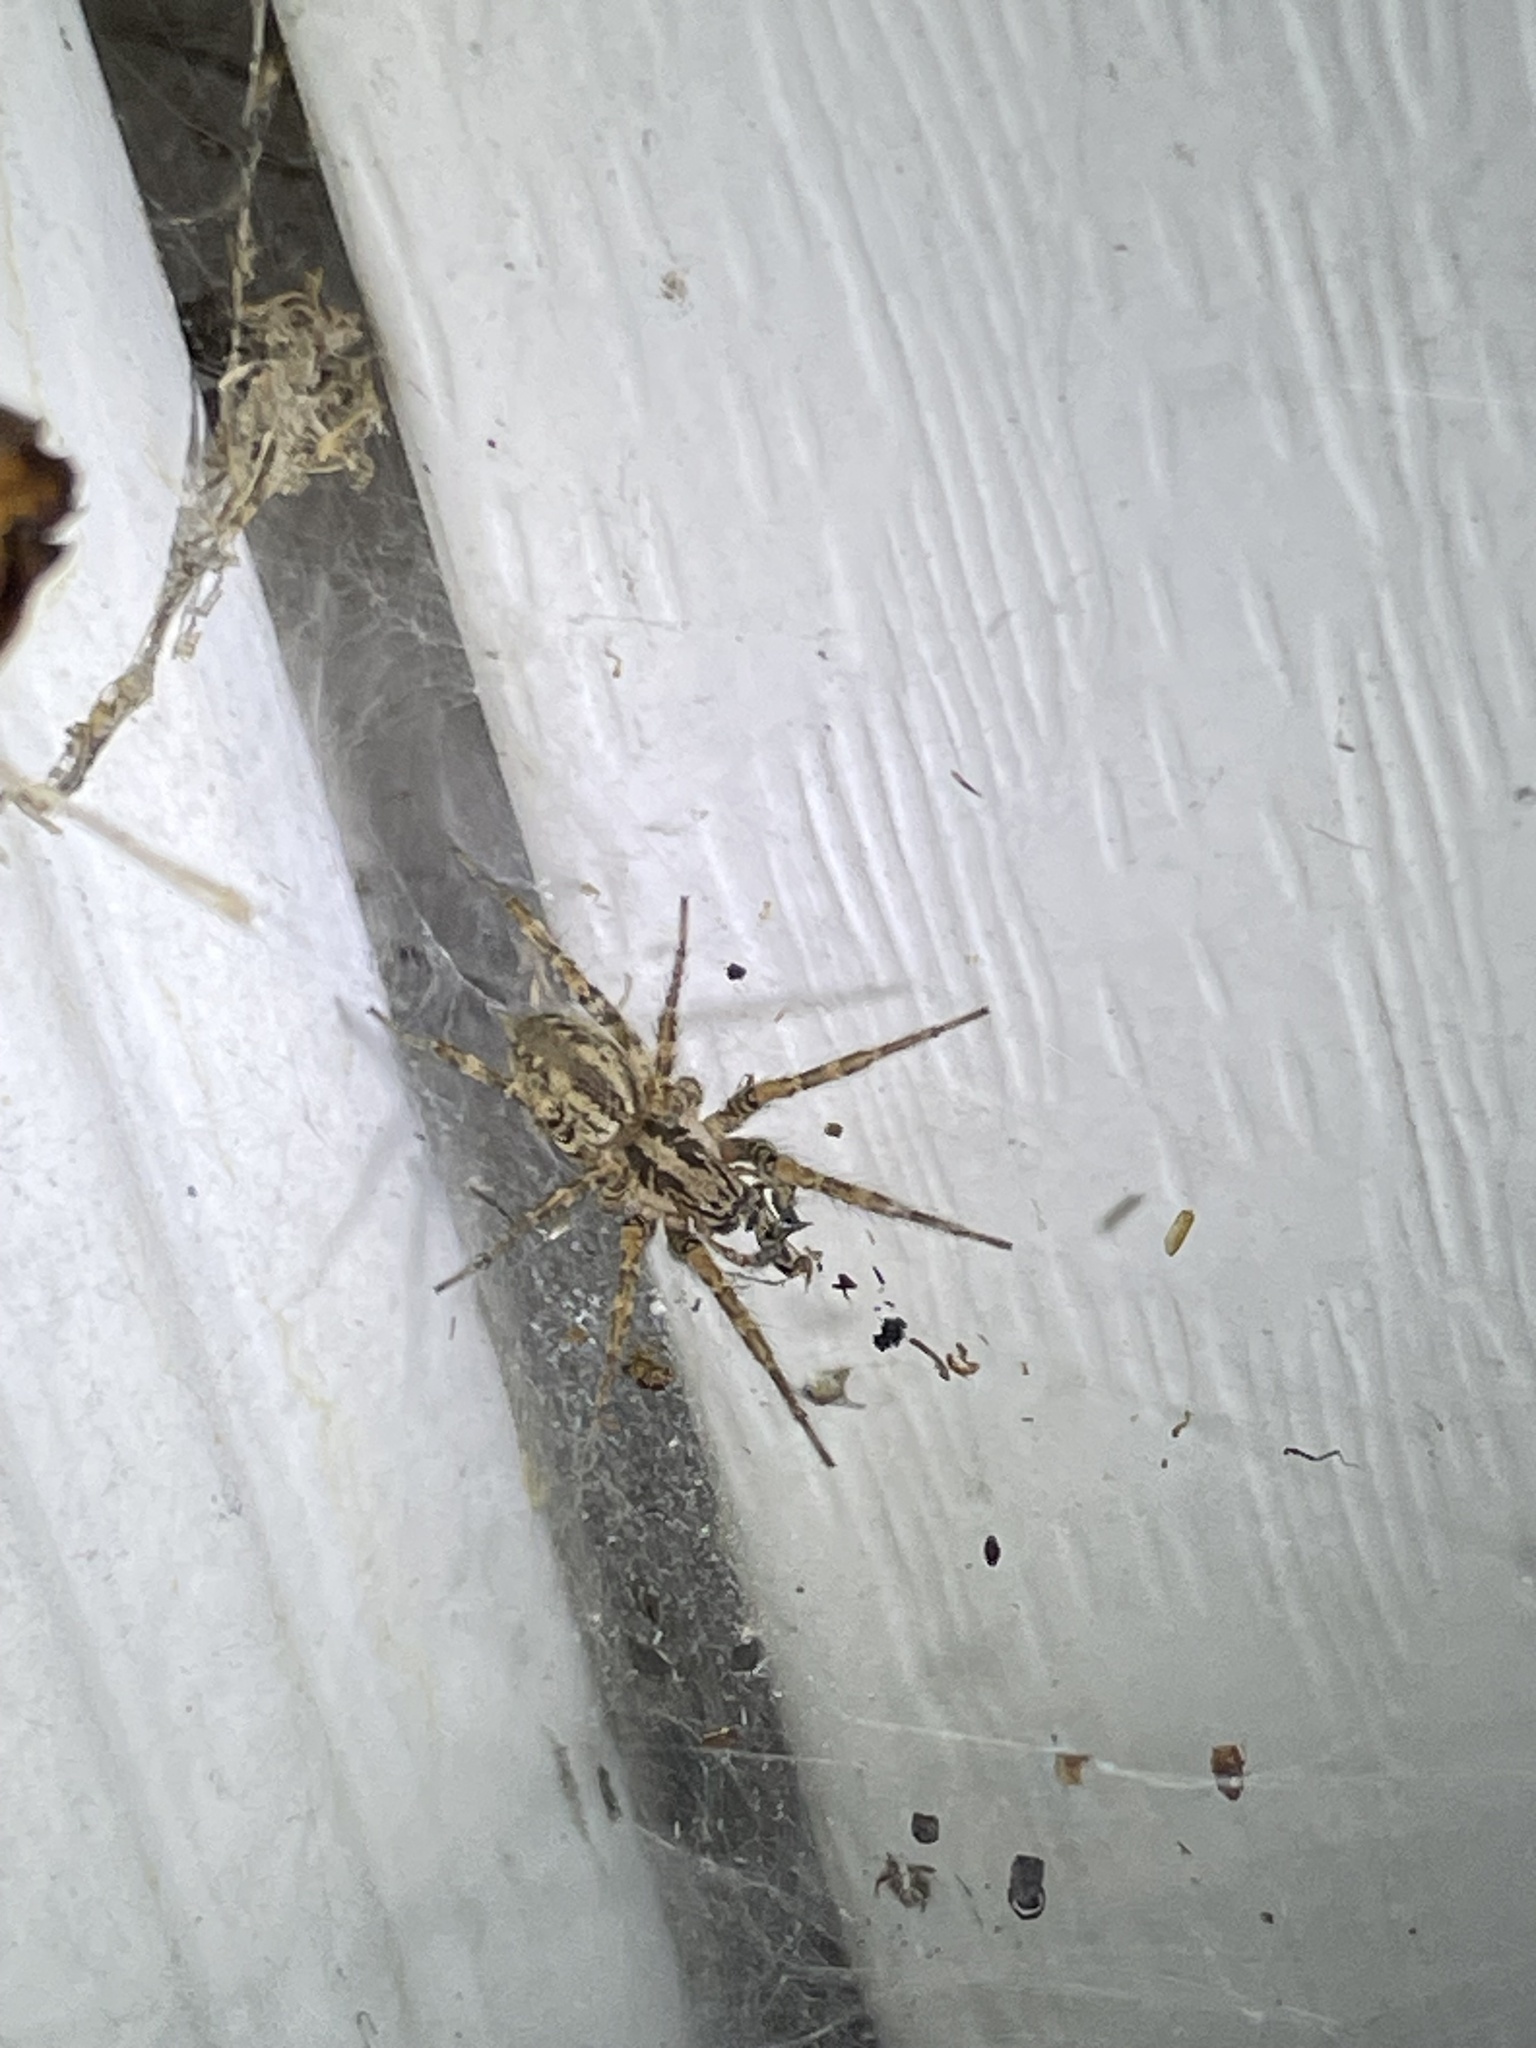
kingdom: Animalia
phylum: Arthropoda
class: Arachnida
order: Araneae
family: Agelenidae
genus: Barronopsis
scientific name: Barronopsis jeffersi
